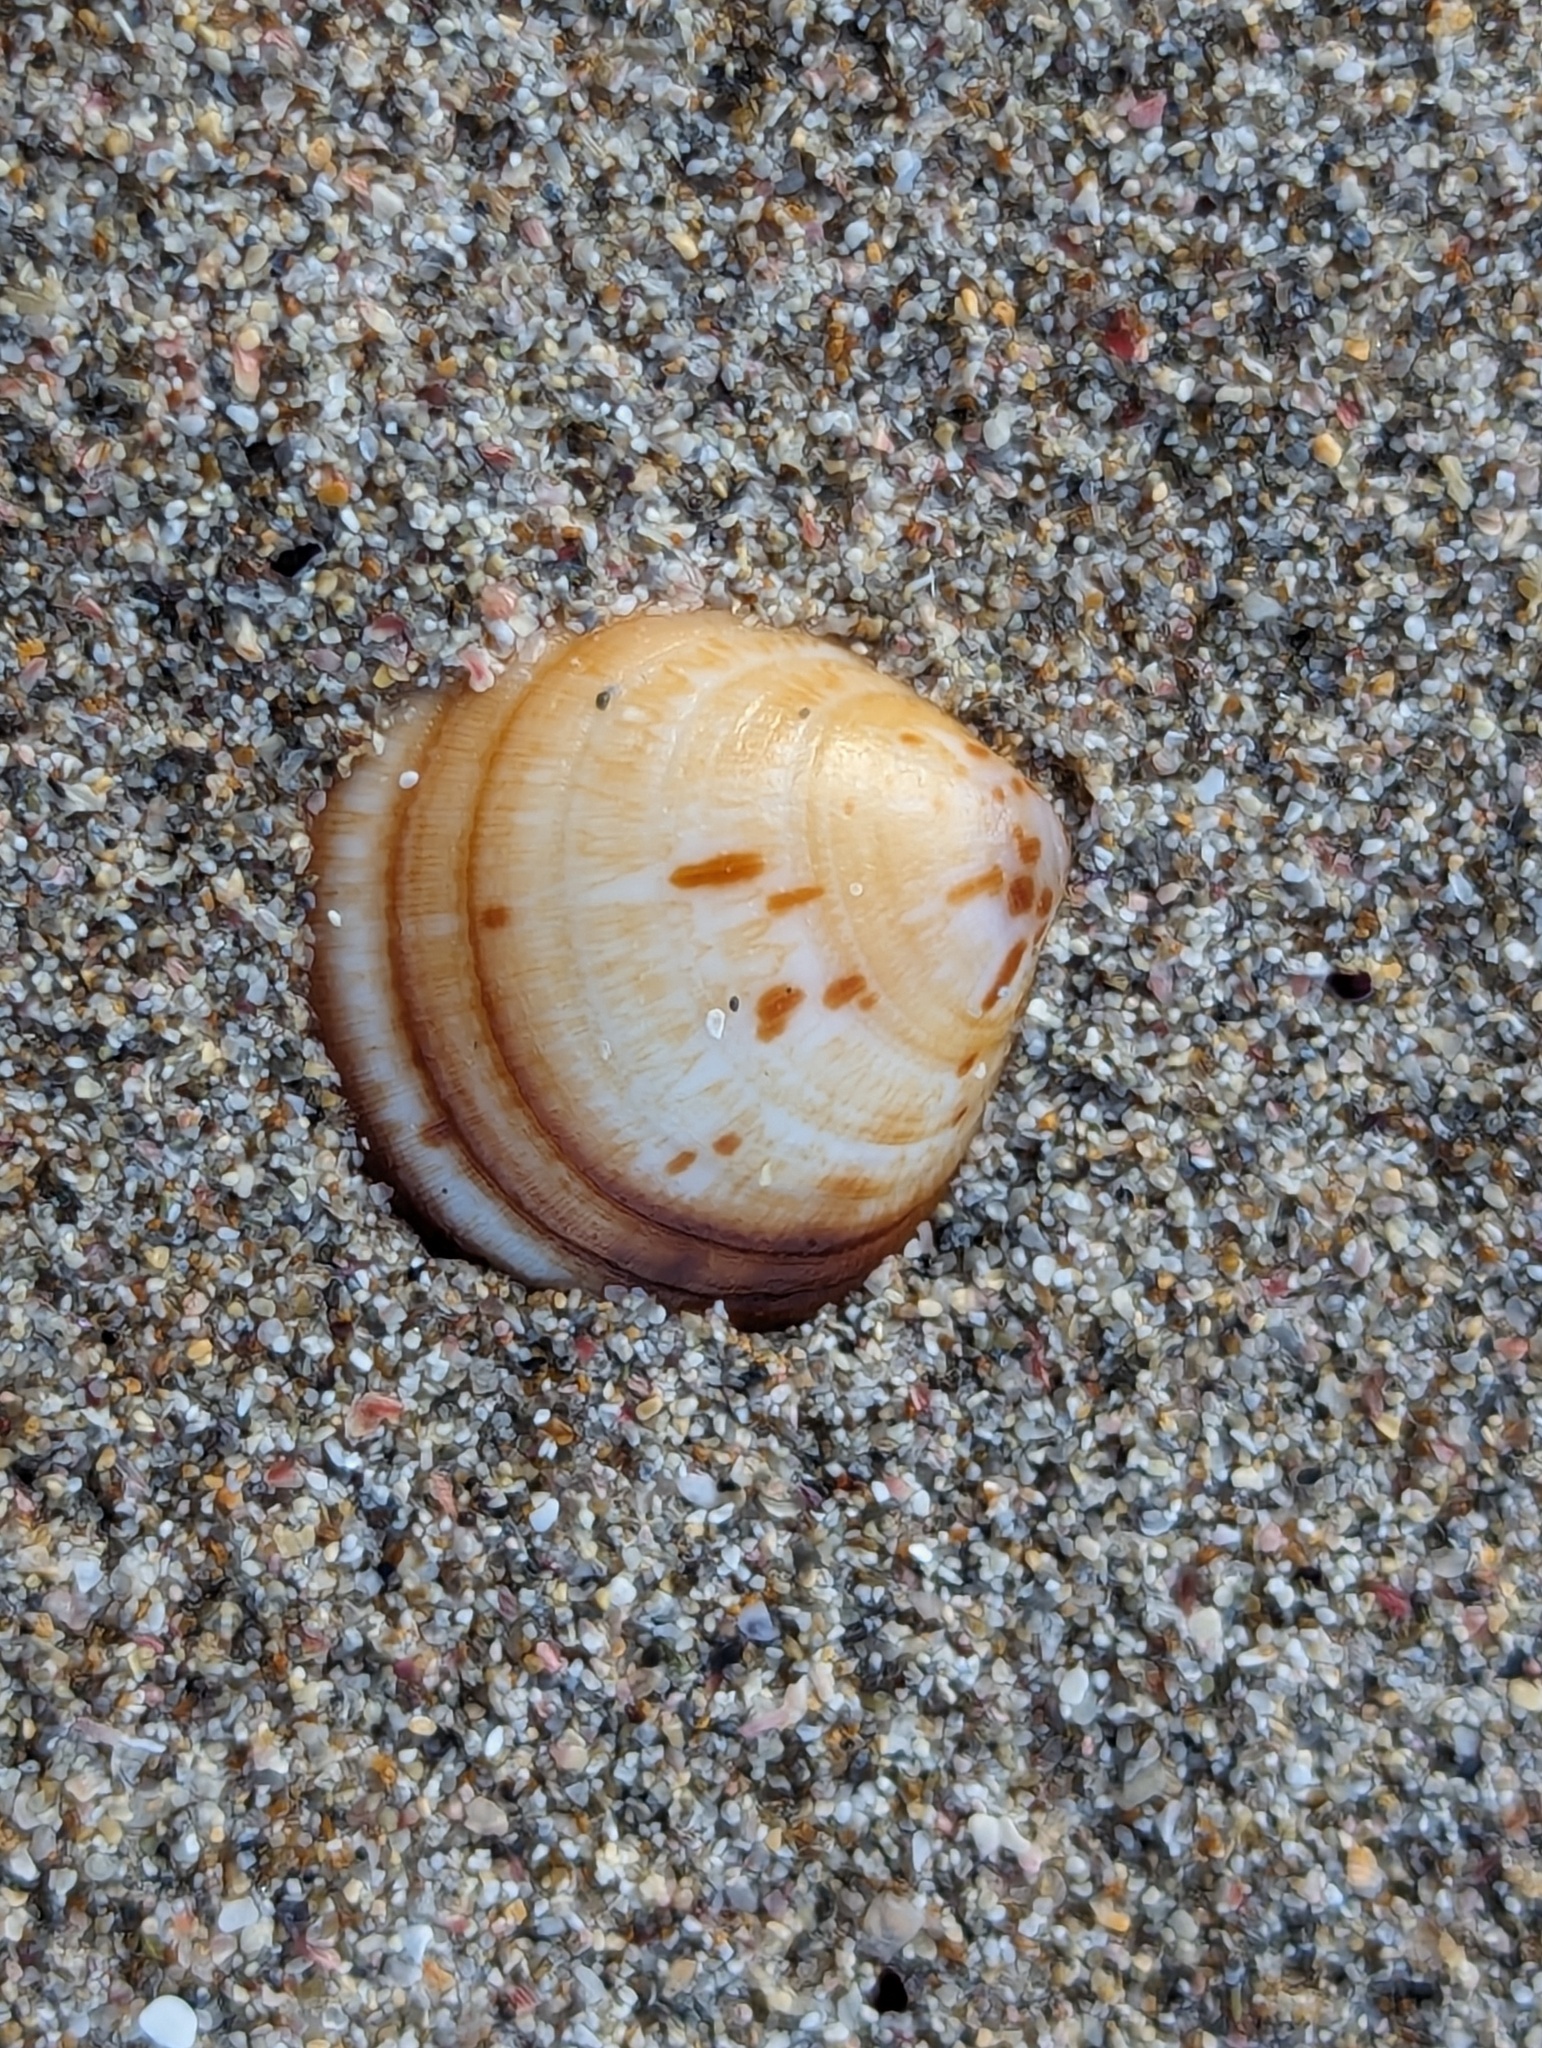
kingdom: Animalia
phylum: Mollusca
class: Bivalvia
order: Arcida
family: Glycymerididae
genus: Glycymeris
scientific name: Glycymeris modesta
